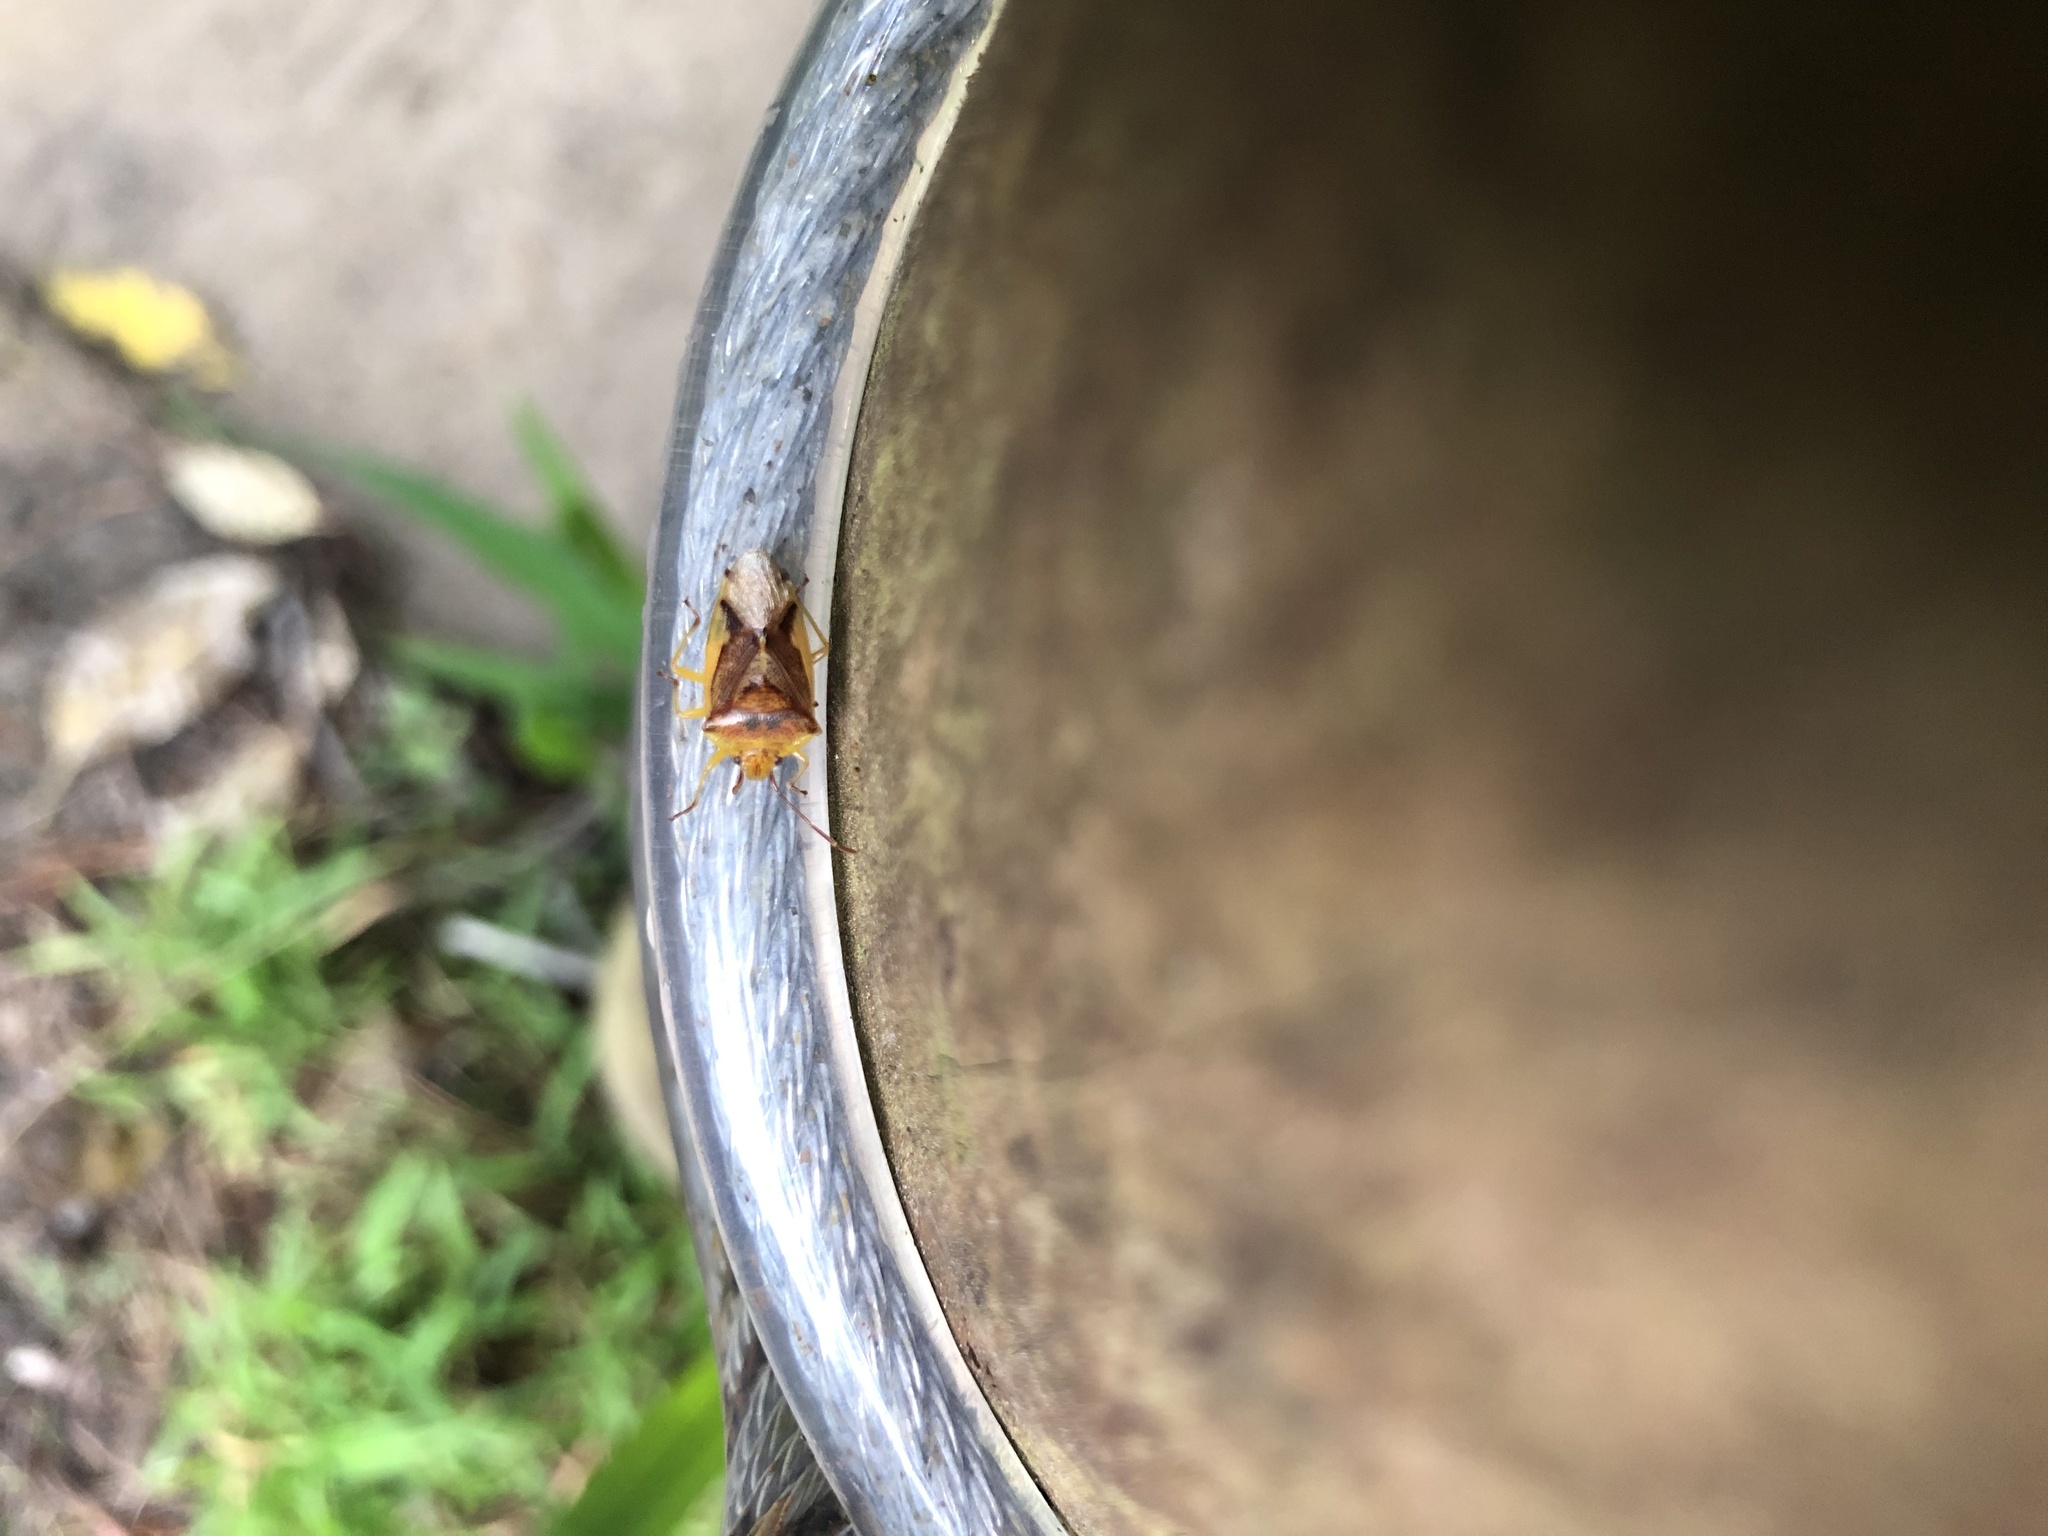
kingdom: Animalia
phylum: Arthropoda
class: Insecta
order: Hemiptera
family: Acanthosomatidae
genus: Oncacontias
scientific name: Oncacontias vittatus
